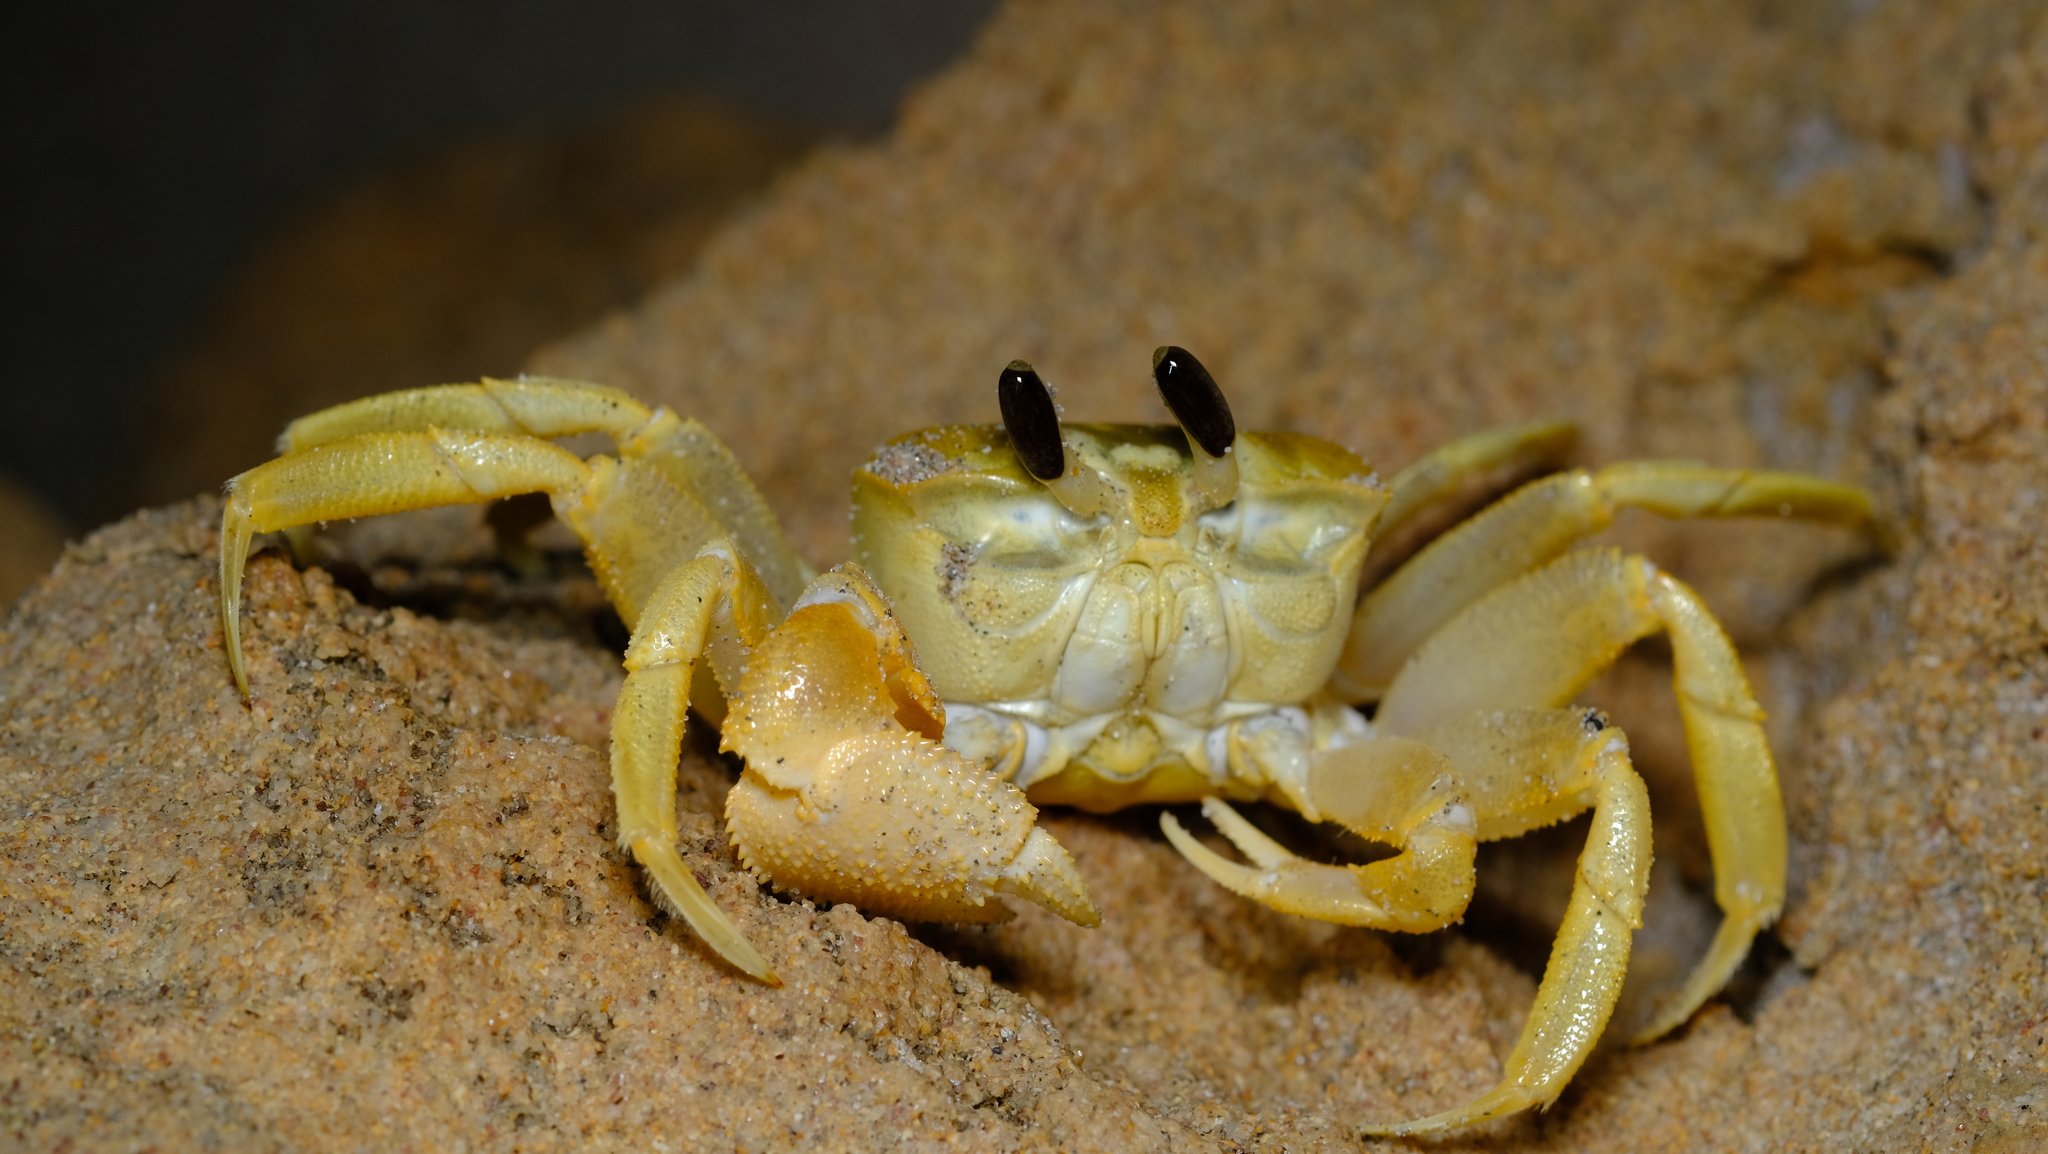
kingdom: Animalia
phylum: Arthropoda
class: Malacostraca
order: Decapoda
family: Ocypodidae
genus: Ocypode
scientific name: Ocypode convexa
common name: Golden ghost crab
